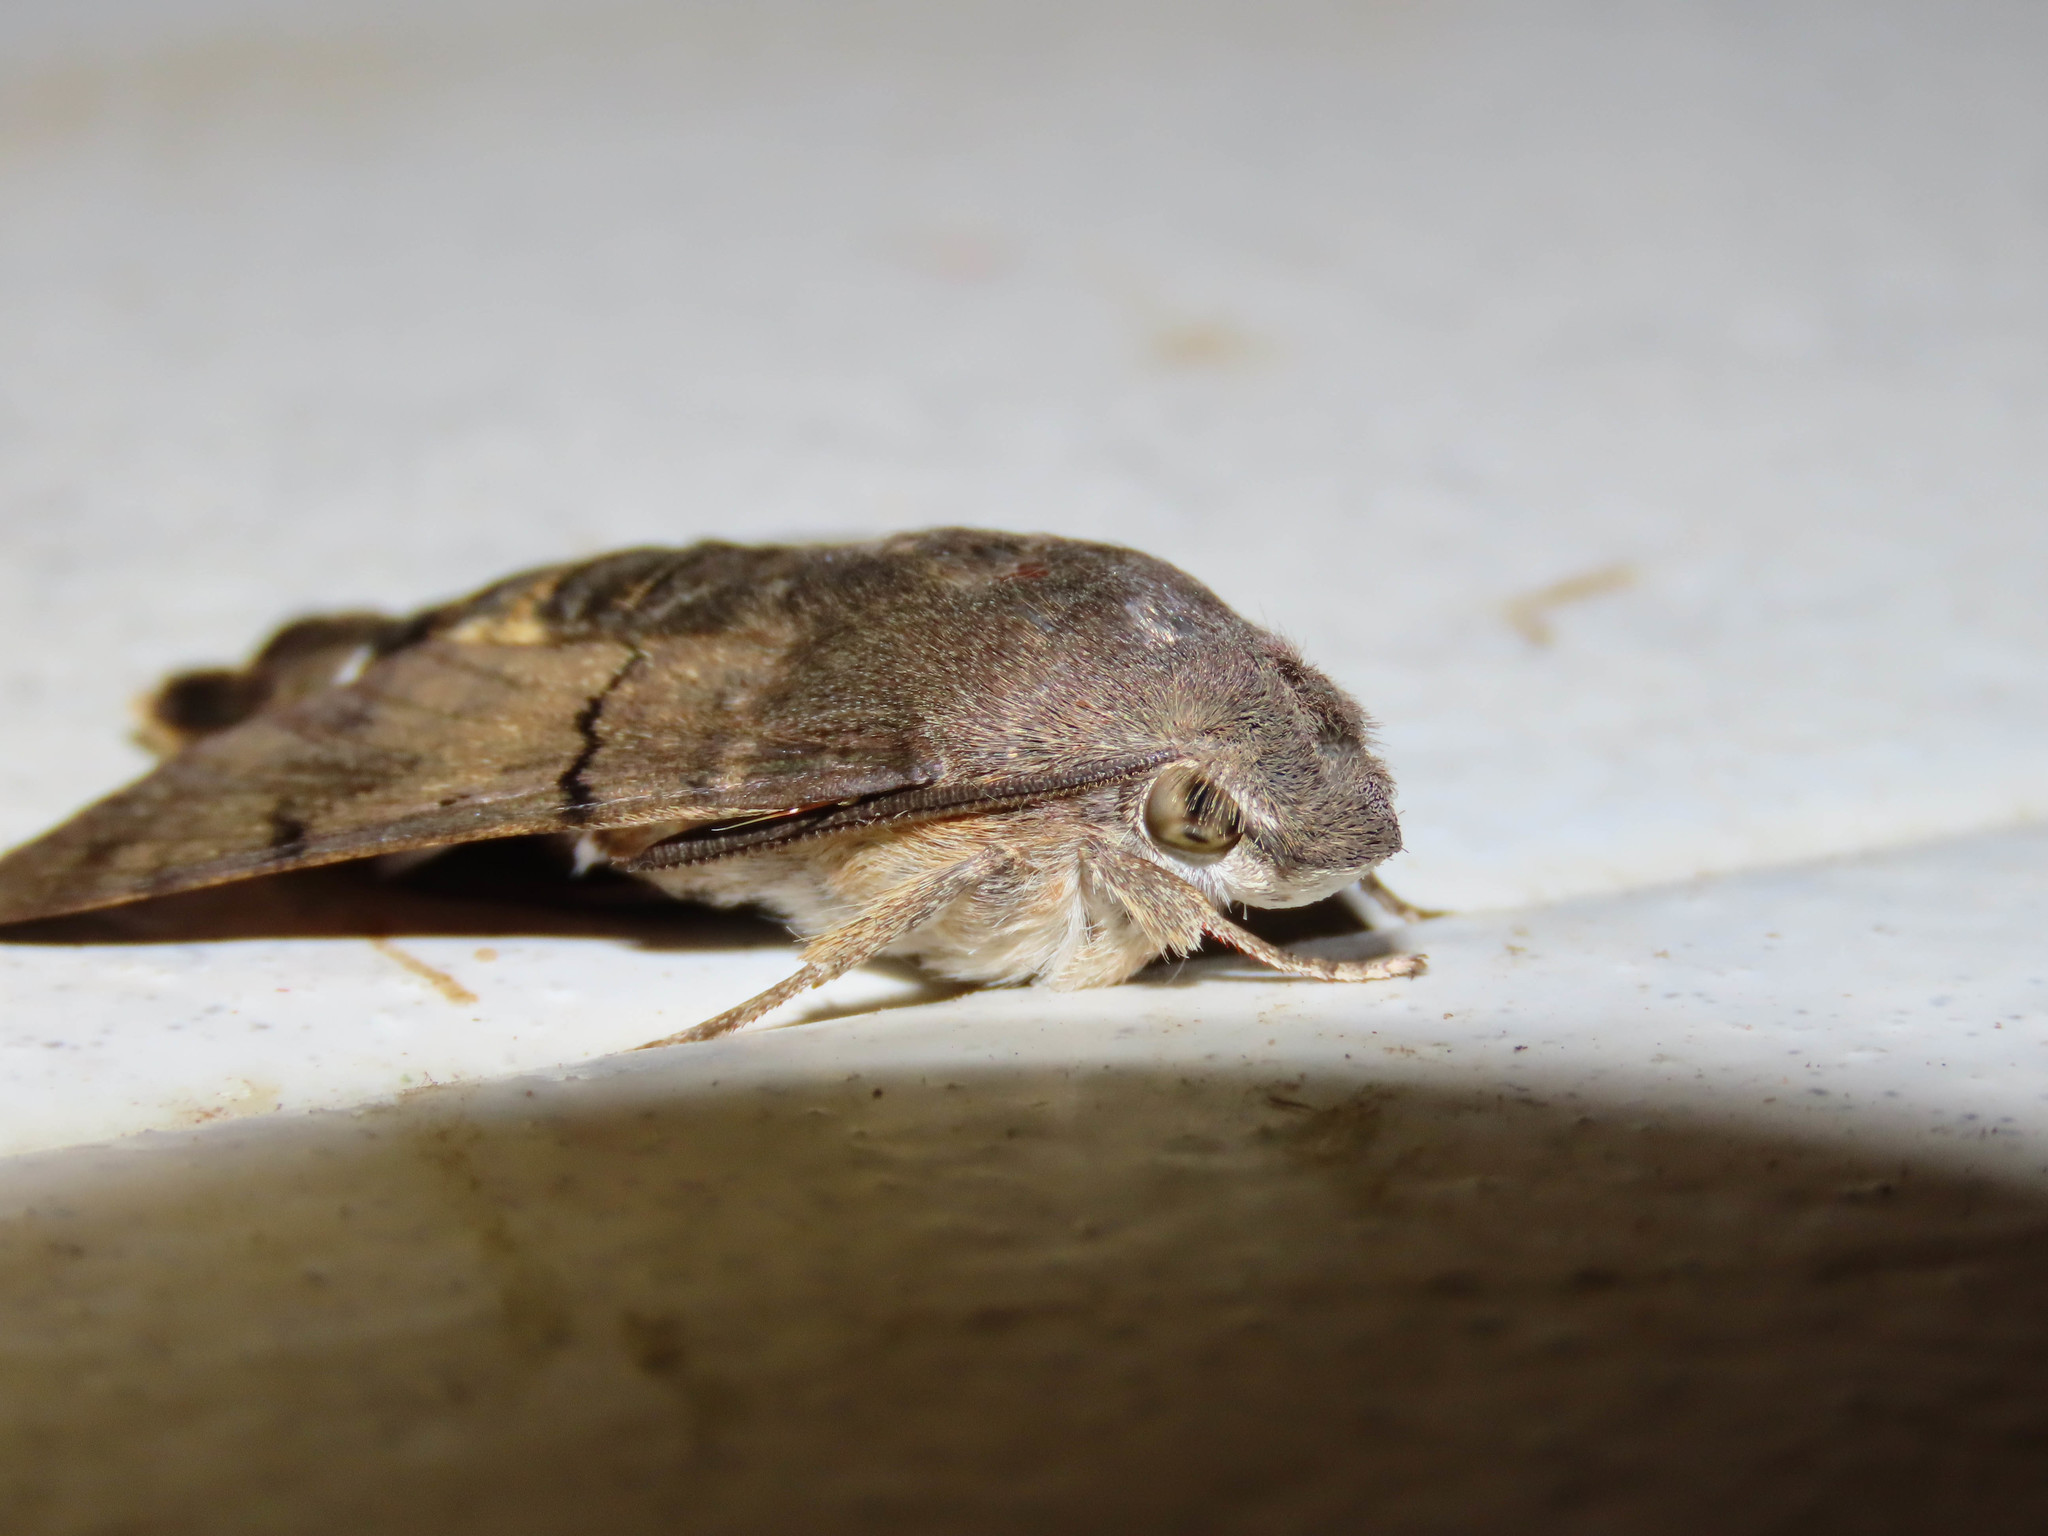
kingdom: Animalia
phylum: Arthropoda
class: Insecta
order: Lepidoptera
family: Sphingidae
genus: Macroglossum
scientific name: Macroglossum stellatarum
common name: Humming-bird hawk-moth
